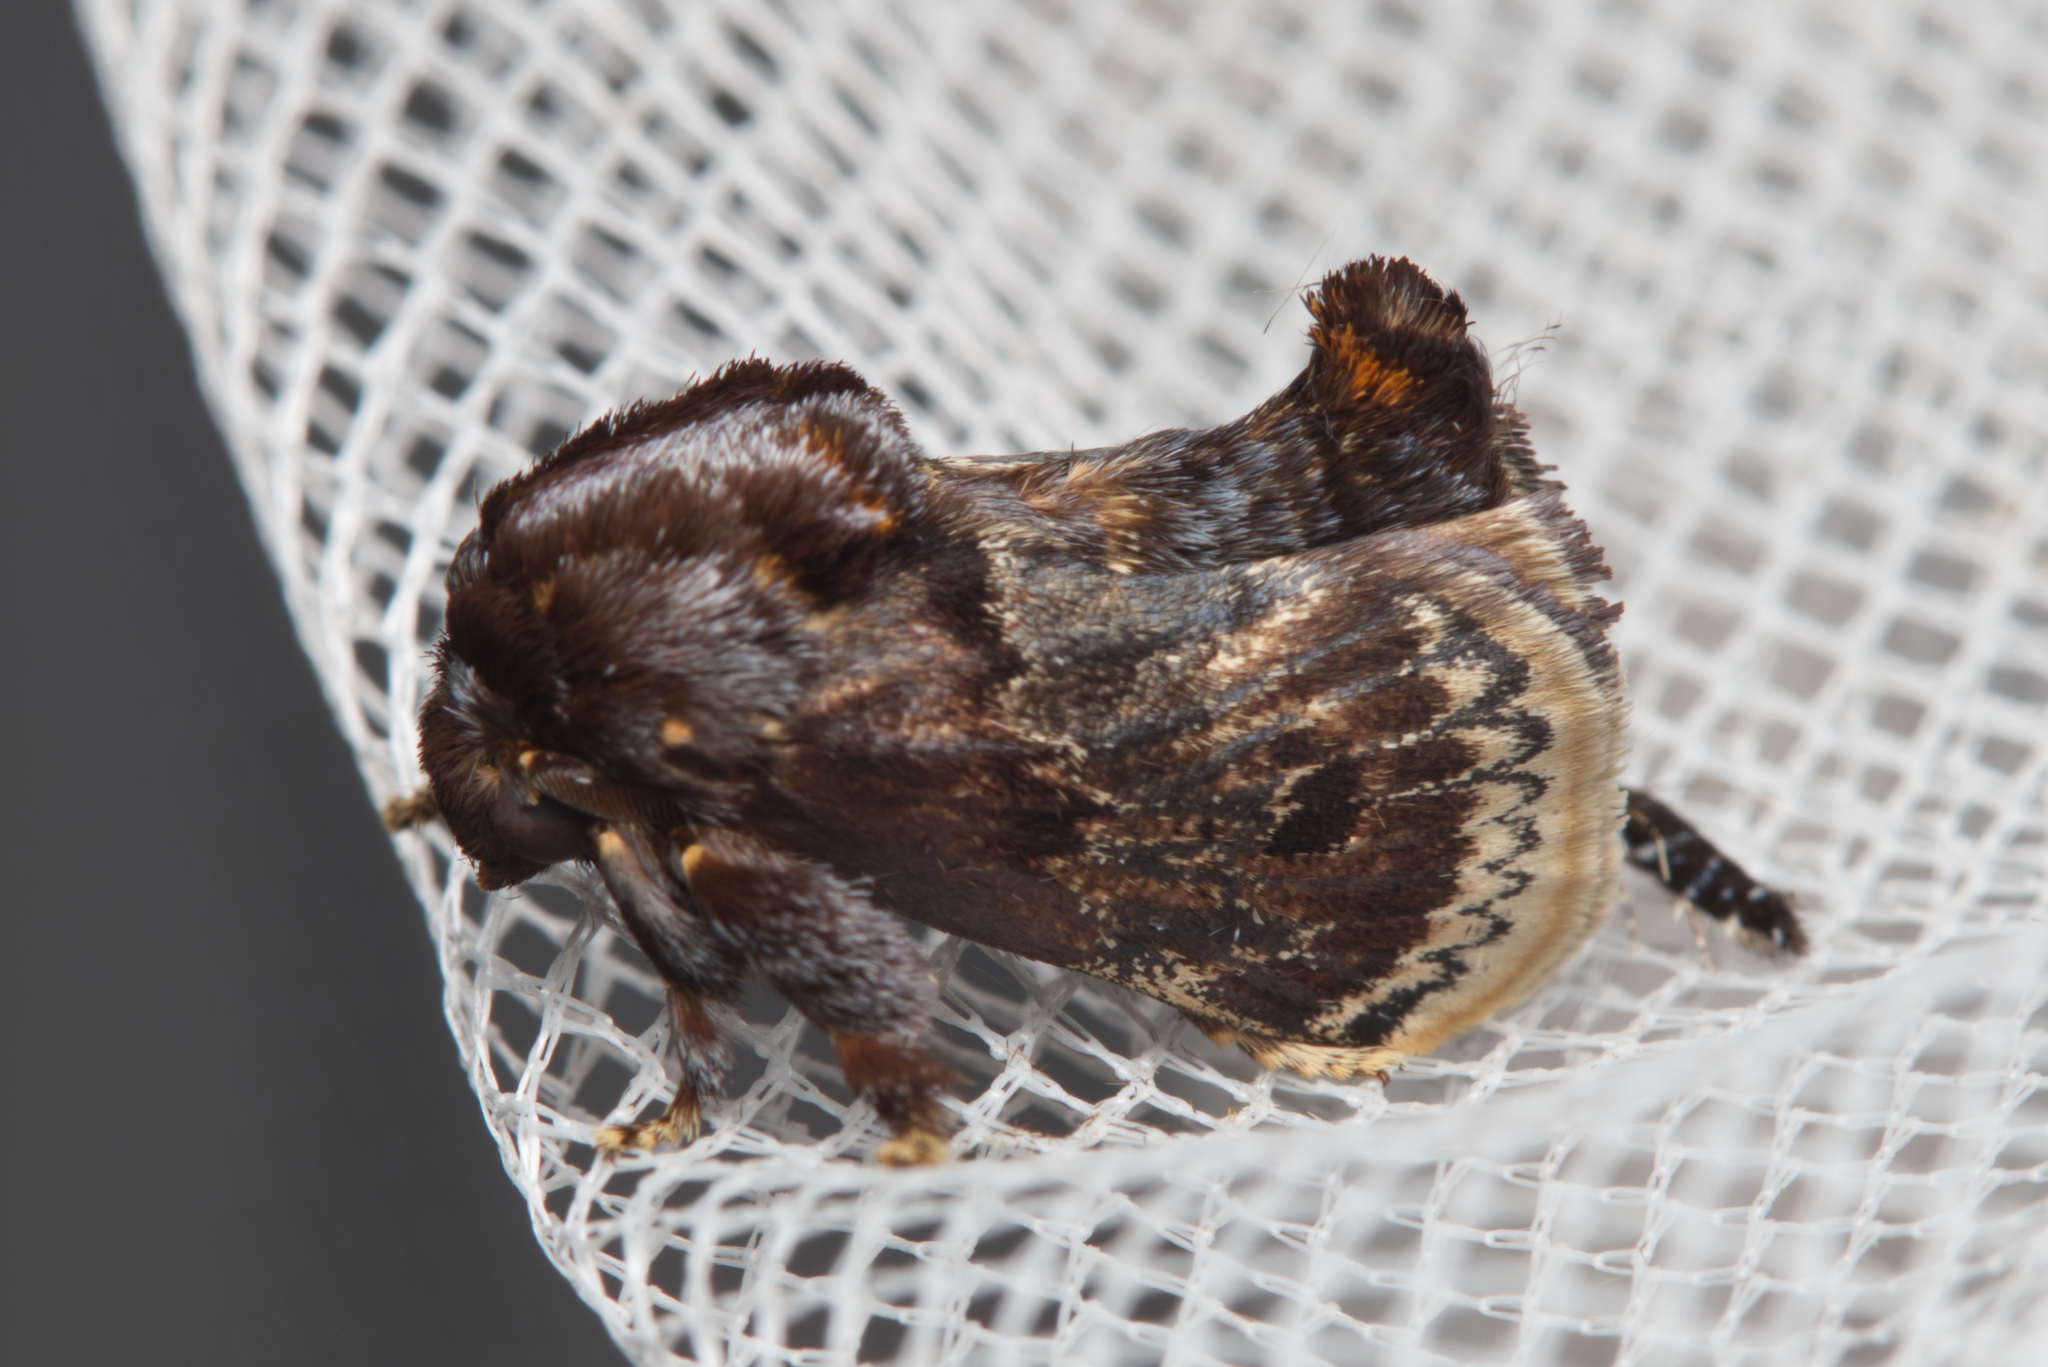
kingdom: Animalia
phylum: Arthropoda
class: Insecta
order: Lepidoptera
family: Limacodidae
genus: Eloasa
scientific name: Eloasa atmodes
